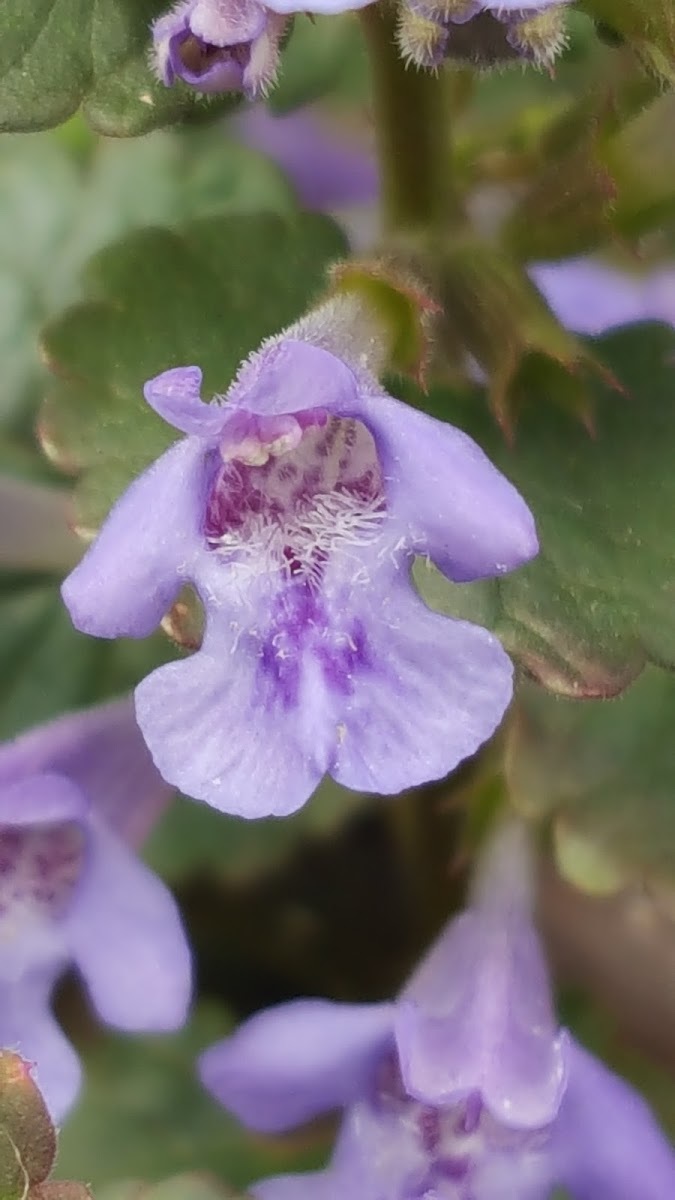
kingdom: Plantae
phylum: Tracheophyta
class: Magnoliopsida
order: Lamiales
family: Lamiaceae
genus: Glechoma
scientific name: Glechoma hederacea
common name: Ground ivy
